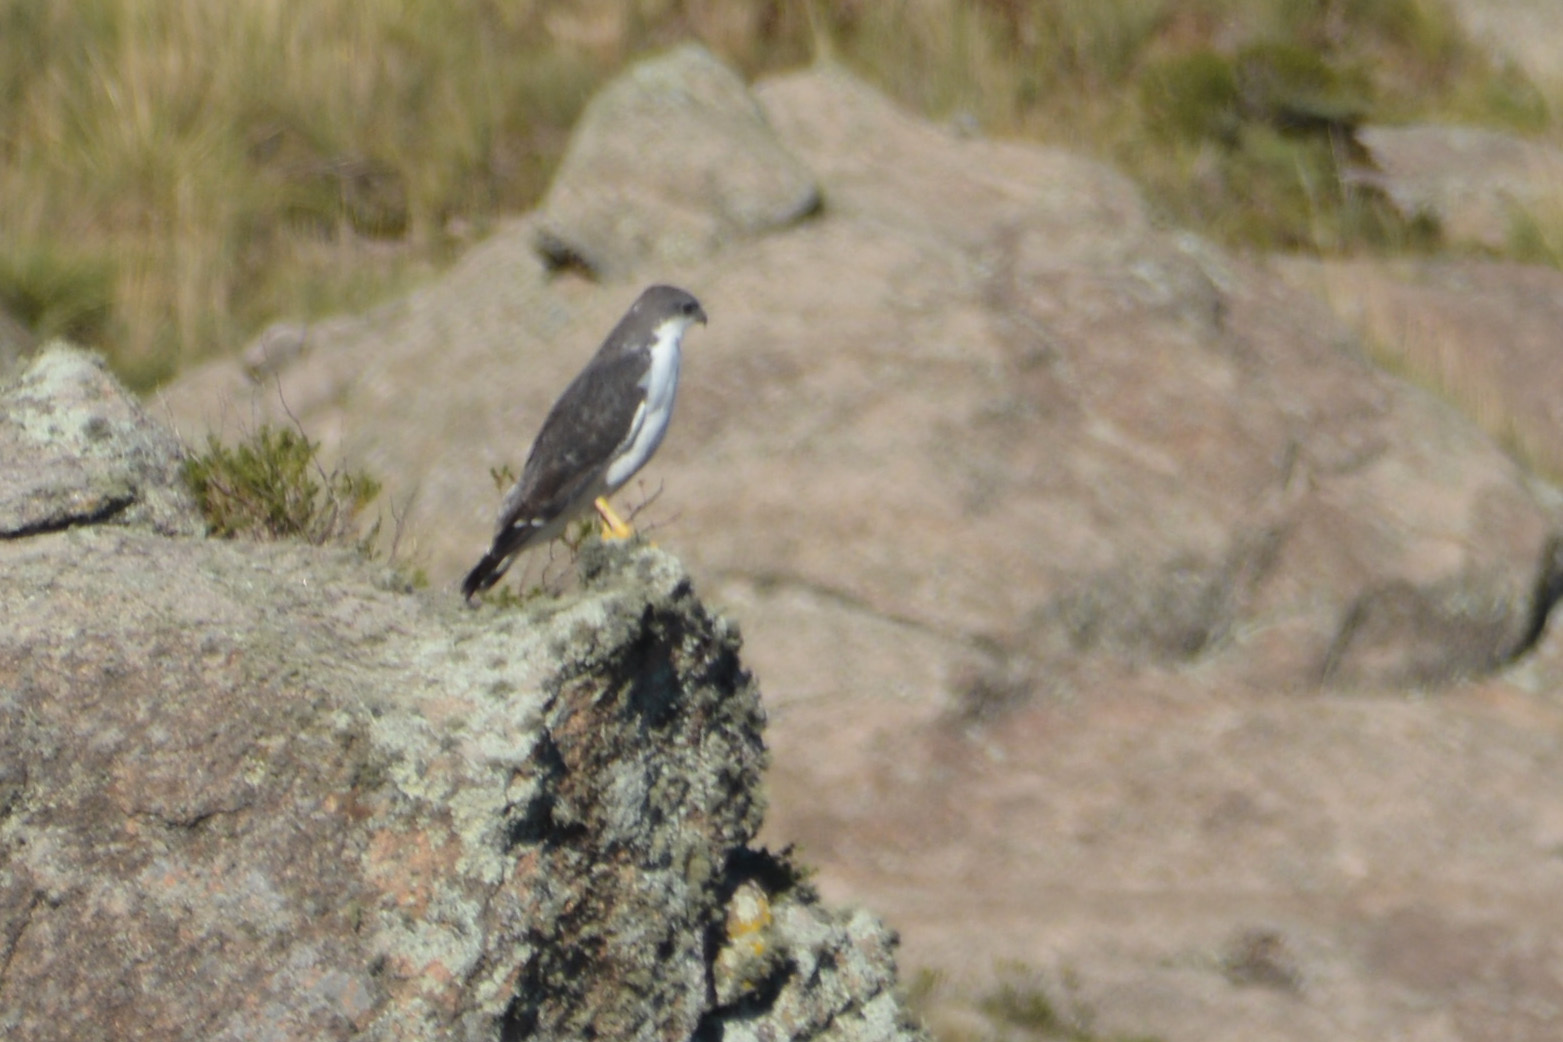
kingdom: Animalia
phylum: Chordata
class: Aves
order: Accipitriformes
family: Accipitridae
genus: Buteo
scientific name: Buteo polyosoma
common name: Variable hawk
